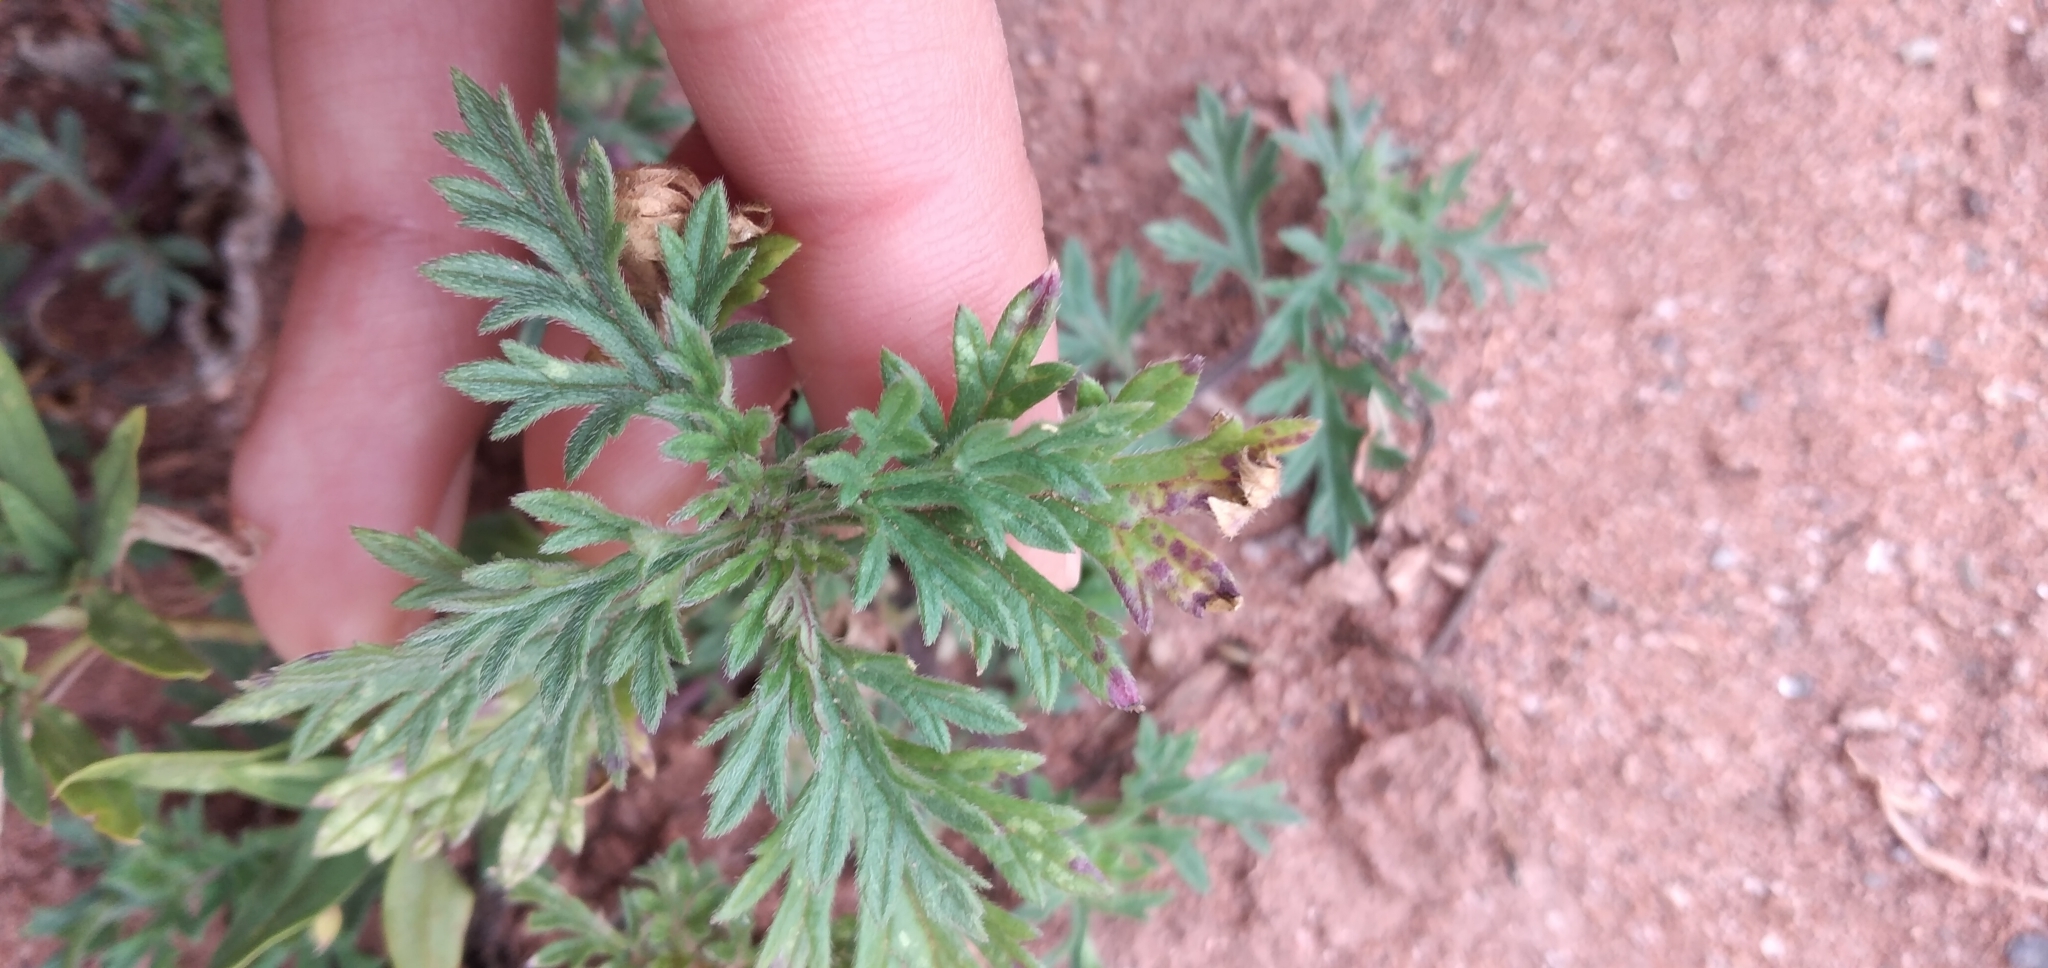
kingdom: Plantae
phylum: Tracheophyta
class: Magnoliopsida
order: Lamiales
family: Verbenaceae
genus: Verbena
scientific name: Verbena santiaguensis
